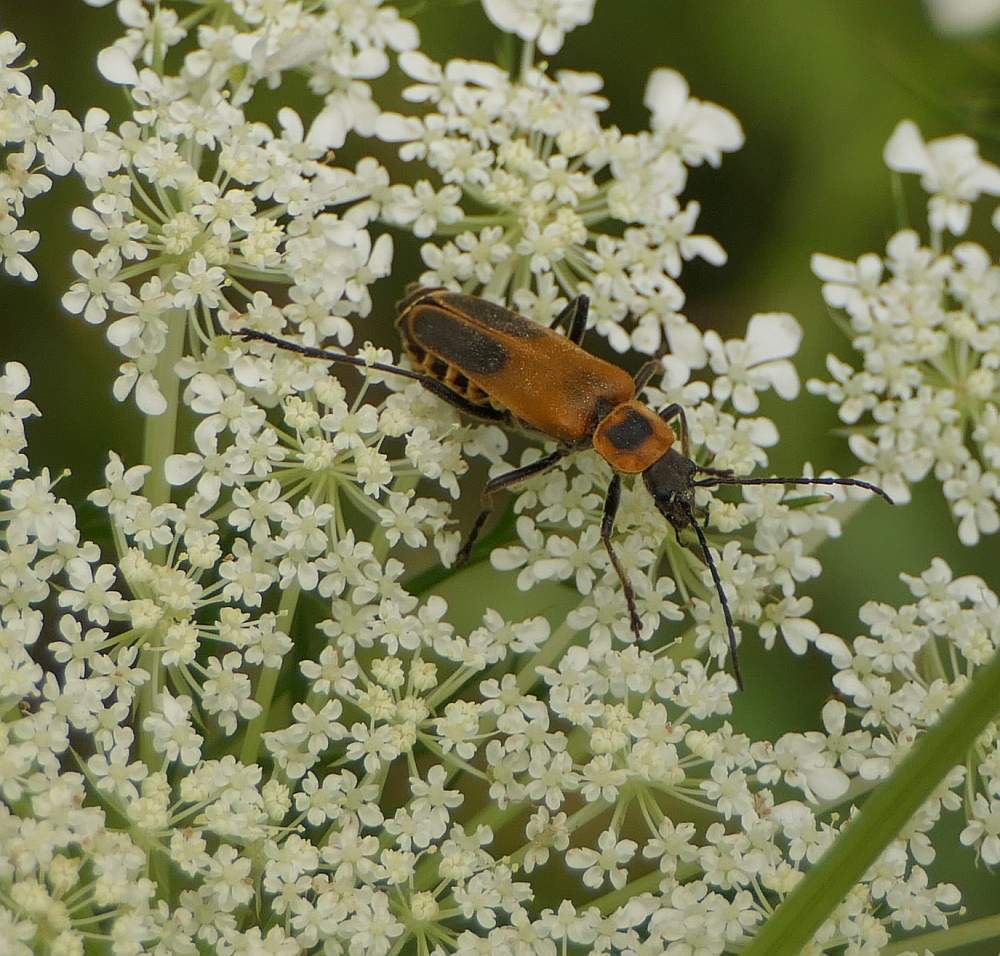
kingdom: Animalia
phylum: Arthropoda
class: Insecta
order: Coleoptera
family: Cantharidae
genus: Chauliognathus
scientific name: Chauliognathus pensylvanicus
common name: Goldenrod soldier beetle
